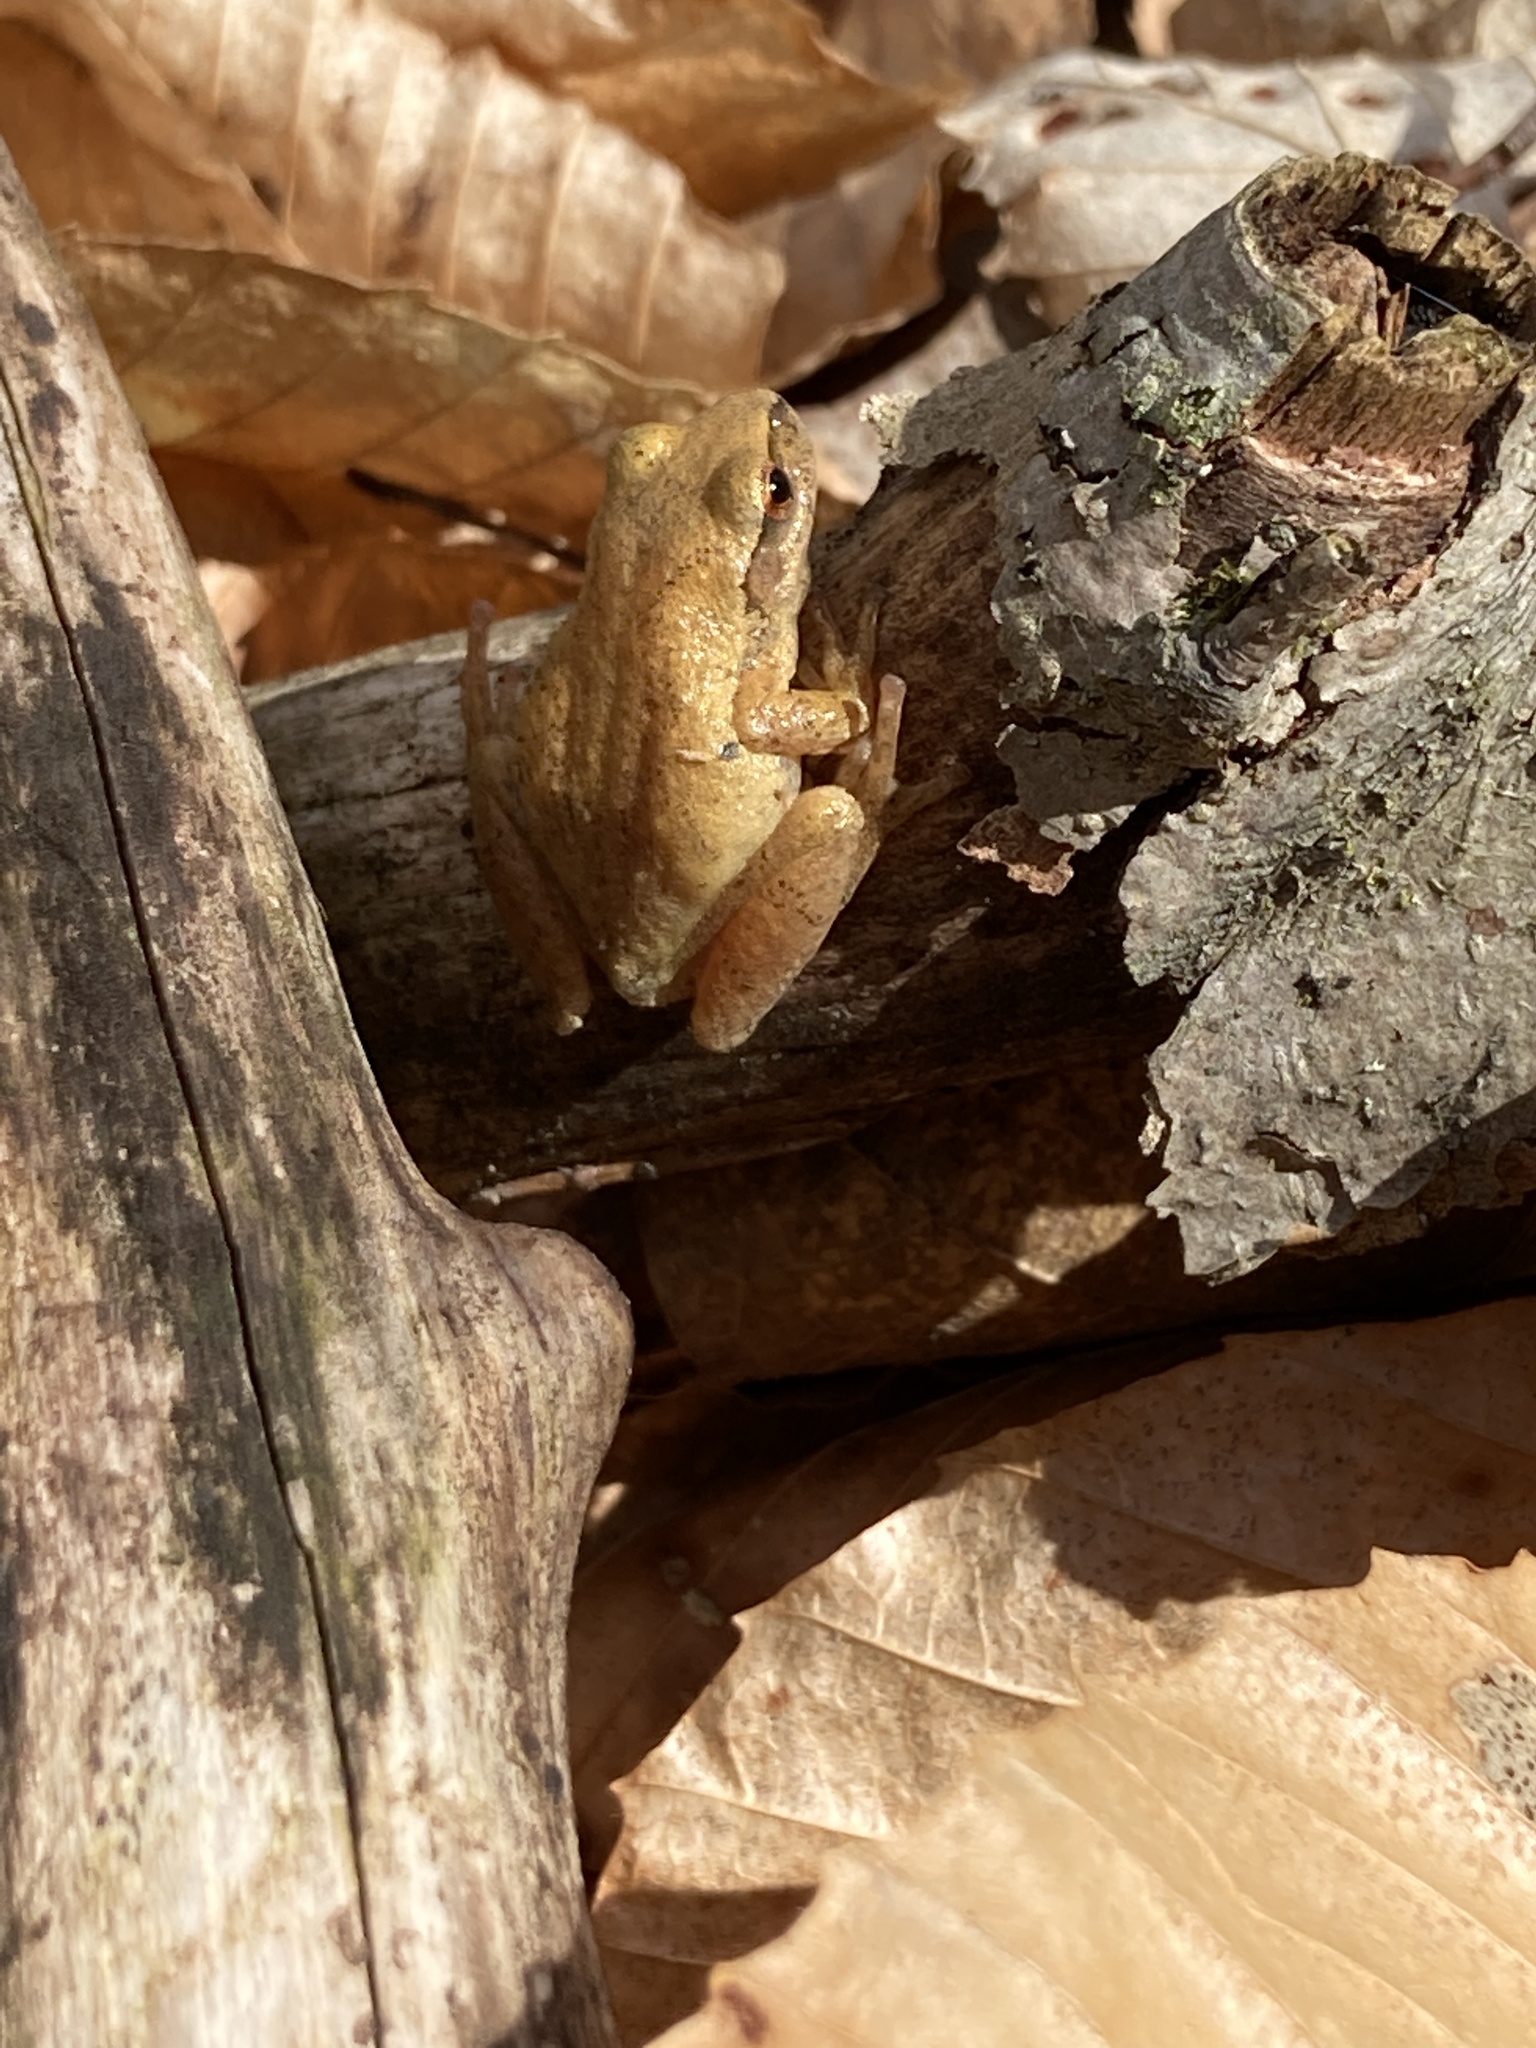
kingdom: Animalia
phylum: Chordata
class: Amphibia
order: Anura
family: Hylidae
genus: Pseudacris
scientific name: Pseudacris crucifer
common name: Spring peeper
